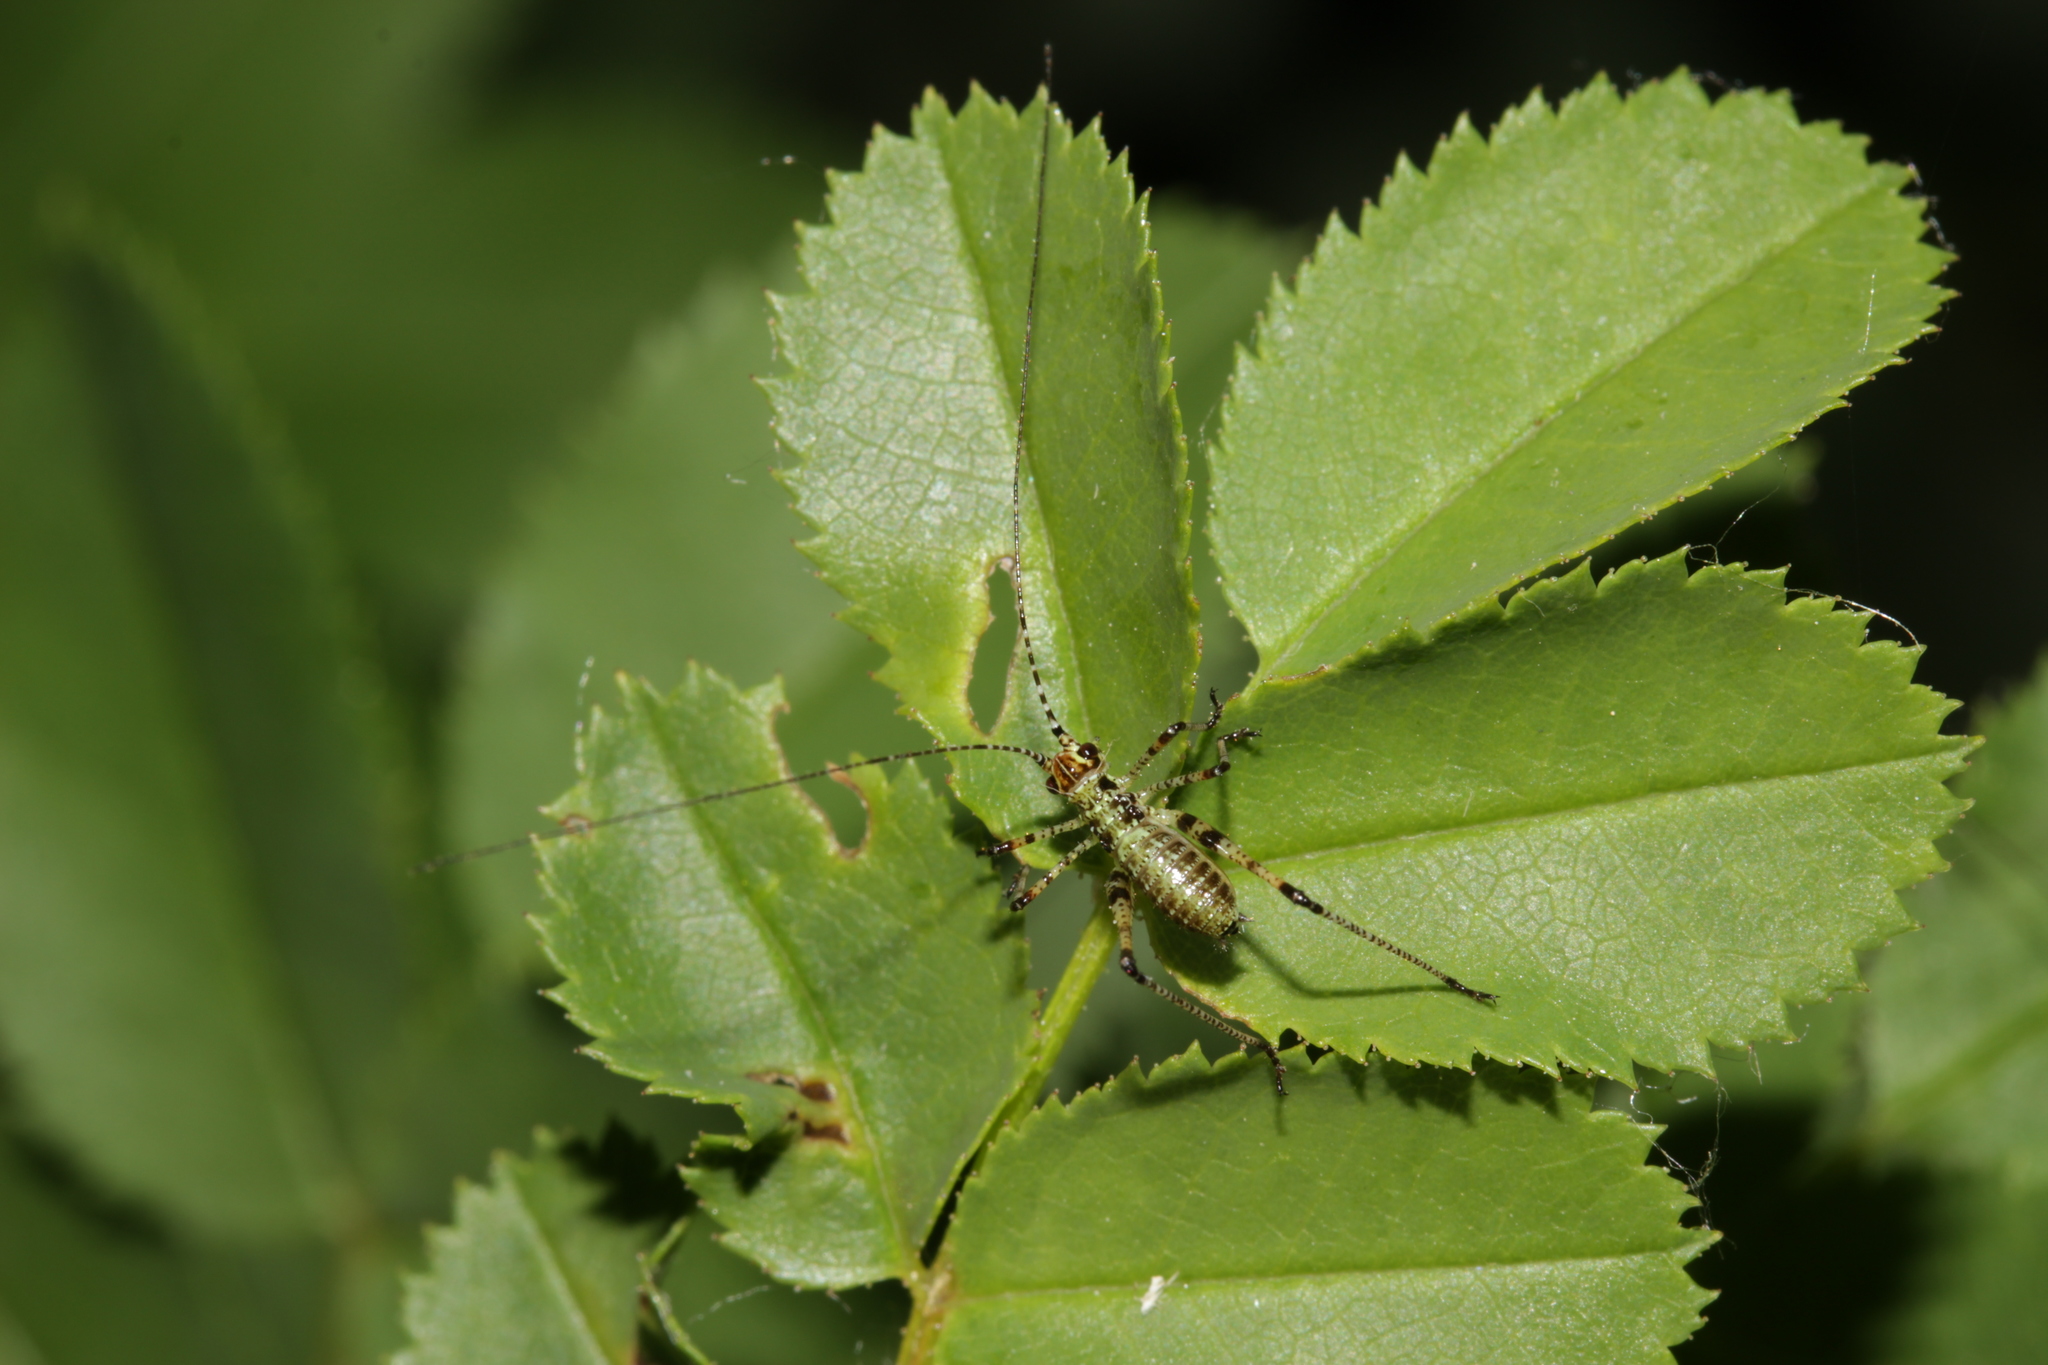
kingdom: Animalia
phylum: Arthropoda
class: Insecta
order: Orthoptera
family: Tettigoniidae
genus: Phaneroptera
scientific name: Phaneroptera nana
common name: Southern sickle bush-cricket
